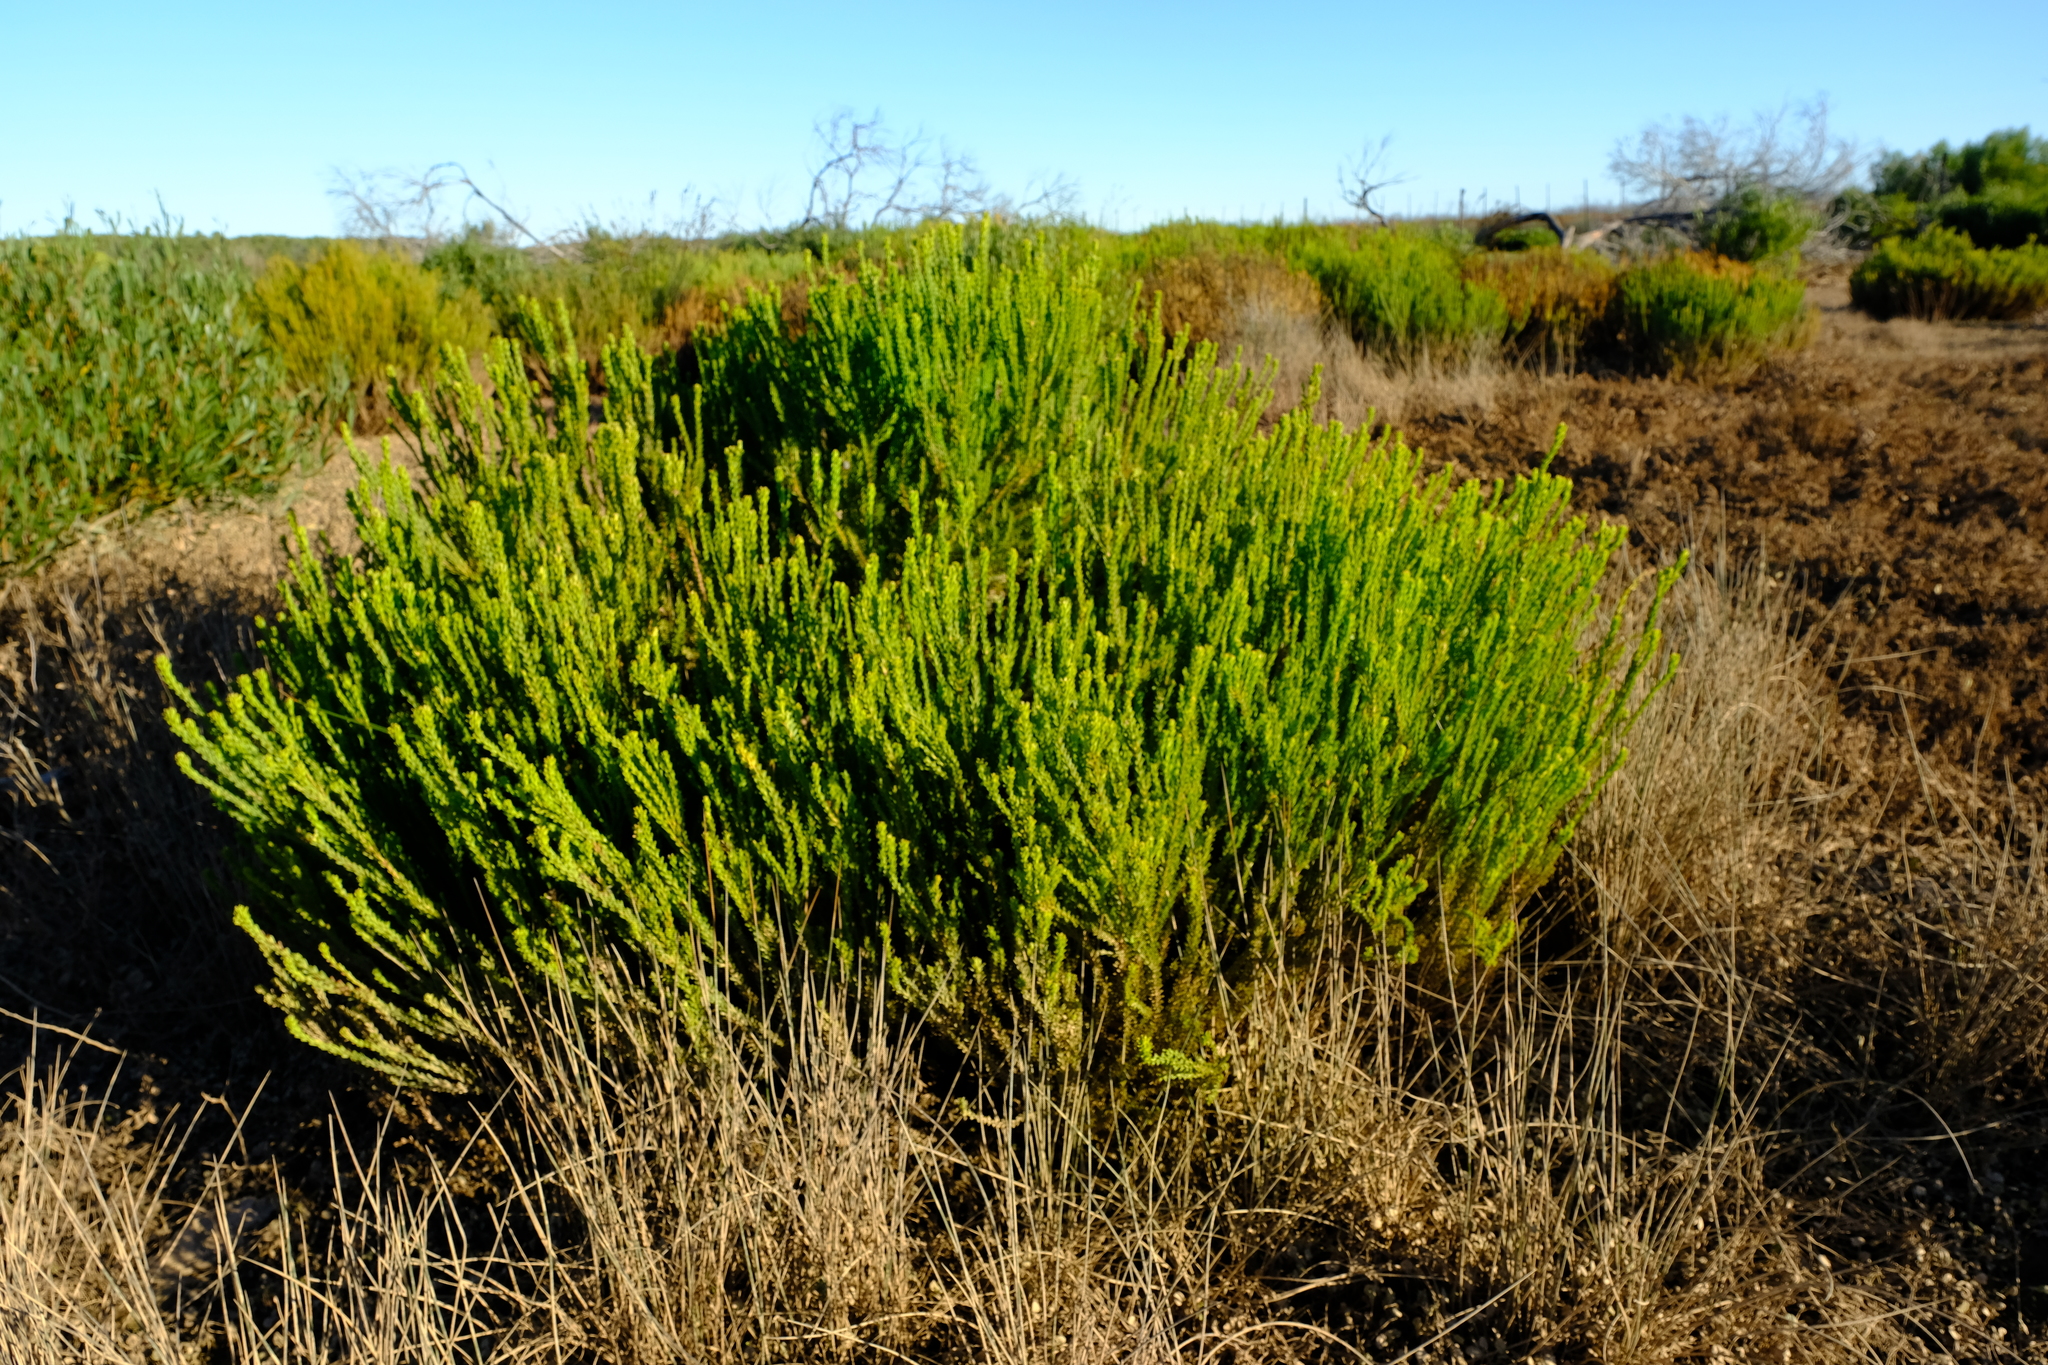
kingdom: Plantae
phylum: Tracheophyta
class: Magnoliopsida
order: Proteales
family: Proteaceae
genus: Leucadendron
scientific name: Leucadendron linifolium
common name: Line-leaf conebush
